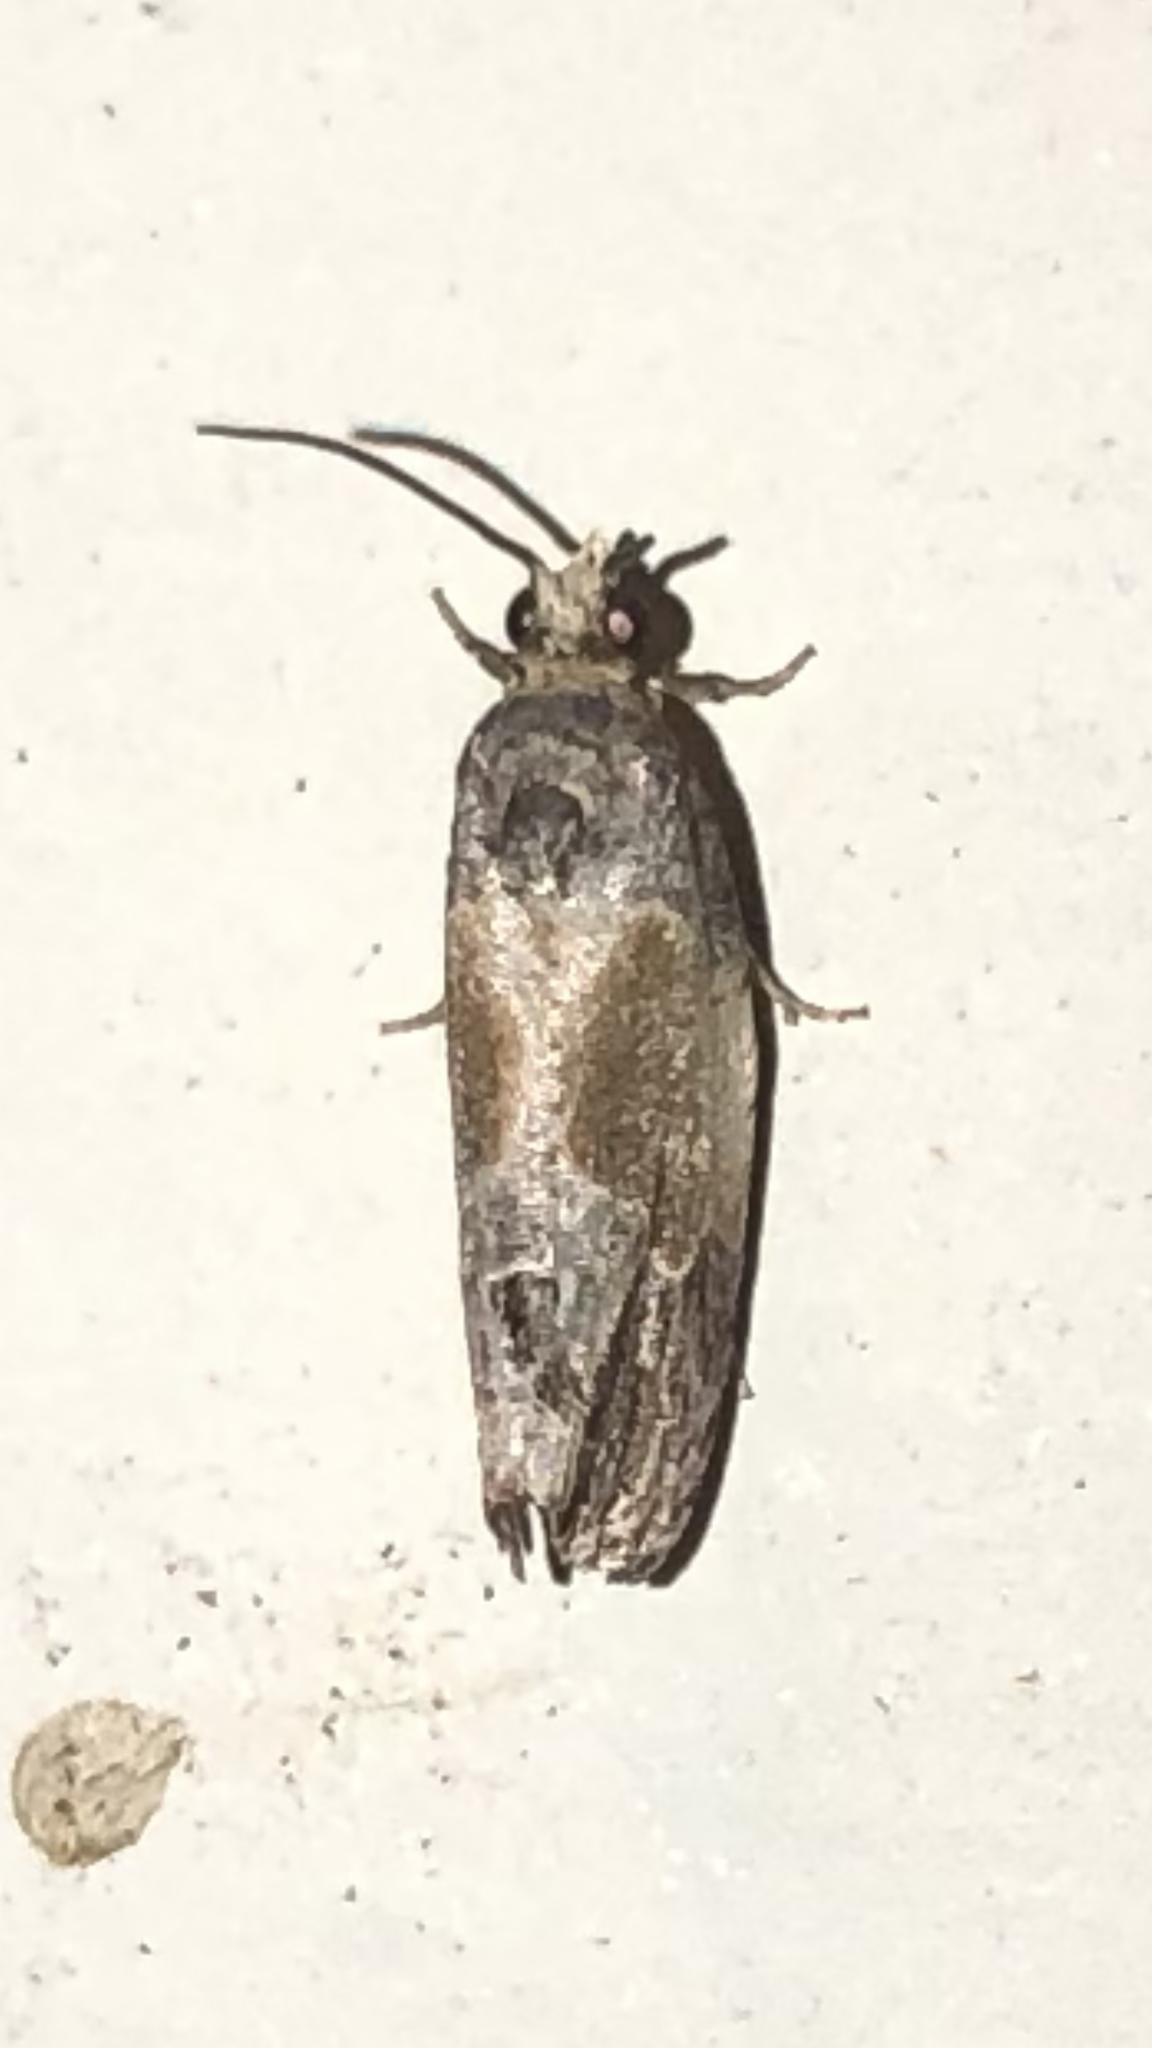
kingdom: Animalia
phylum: Arthropoda
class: Insecta
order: Lepidoptera
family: Tortricidae
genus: Eumarozia
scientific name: Eumarozia malachitana
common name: Sculptured moth
